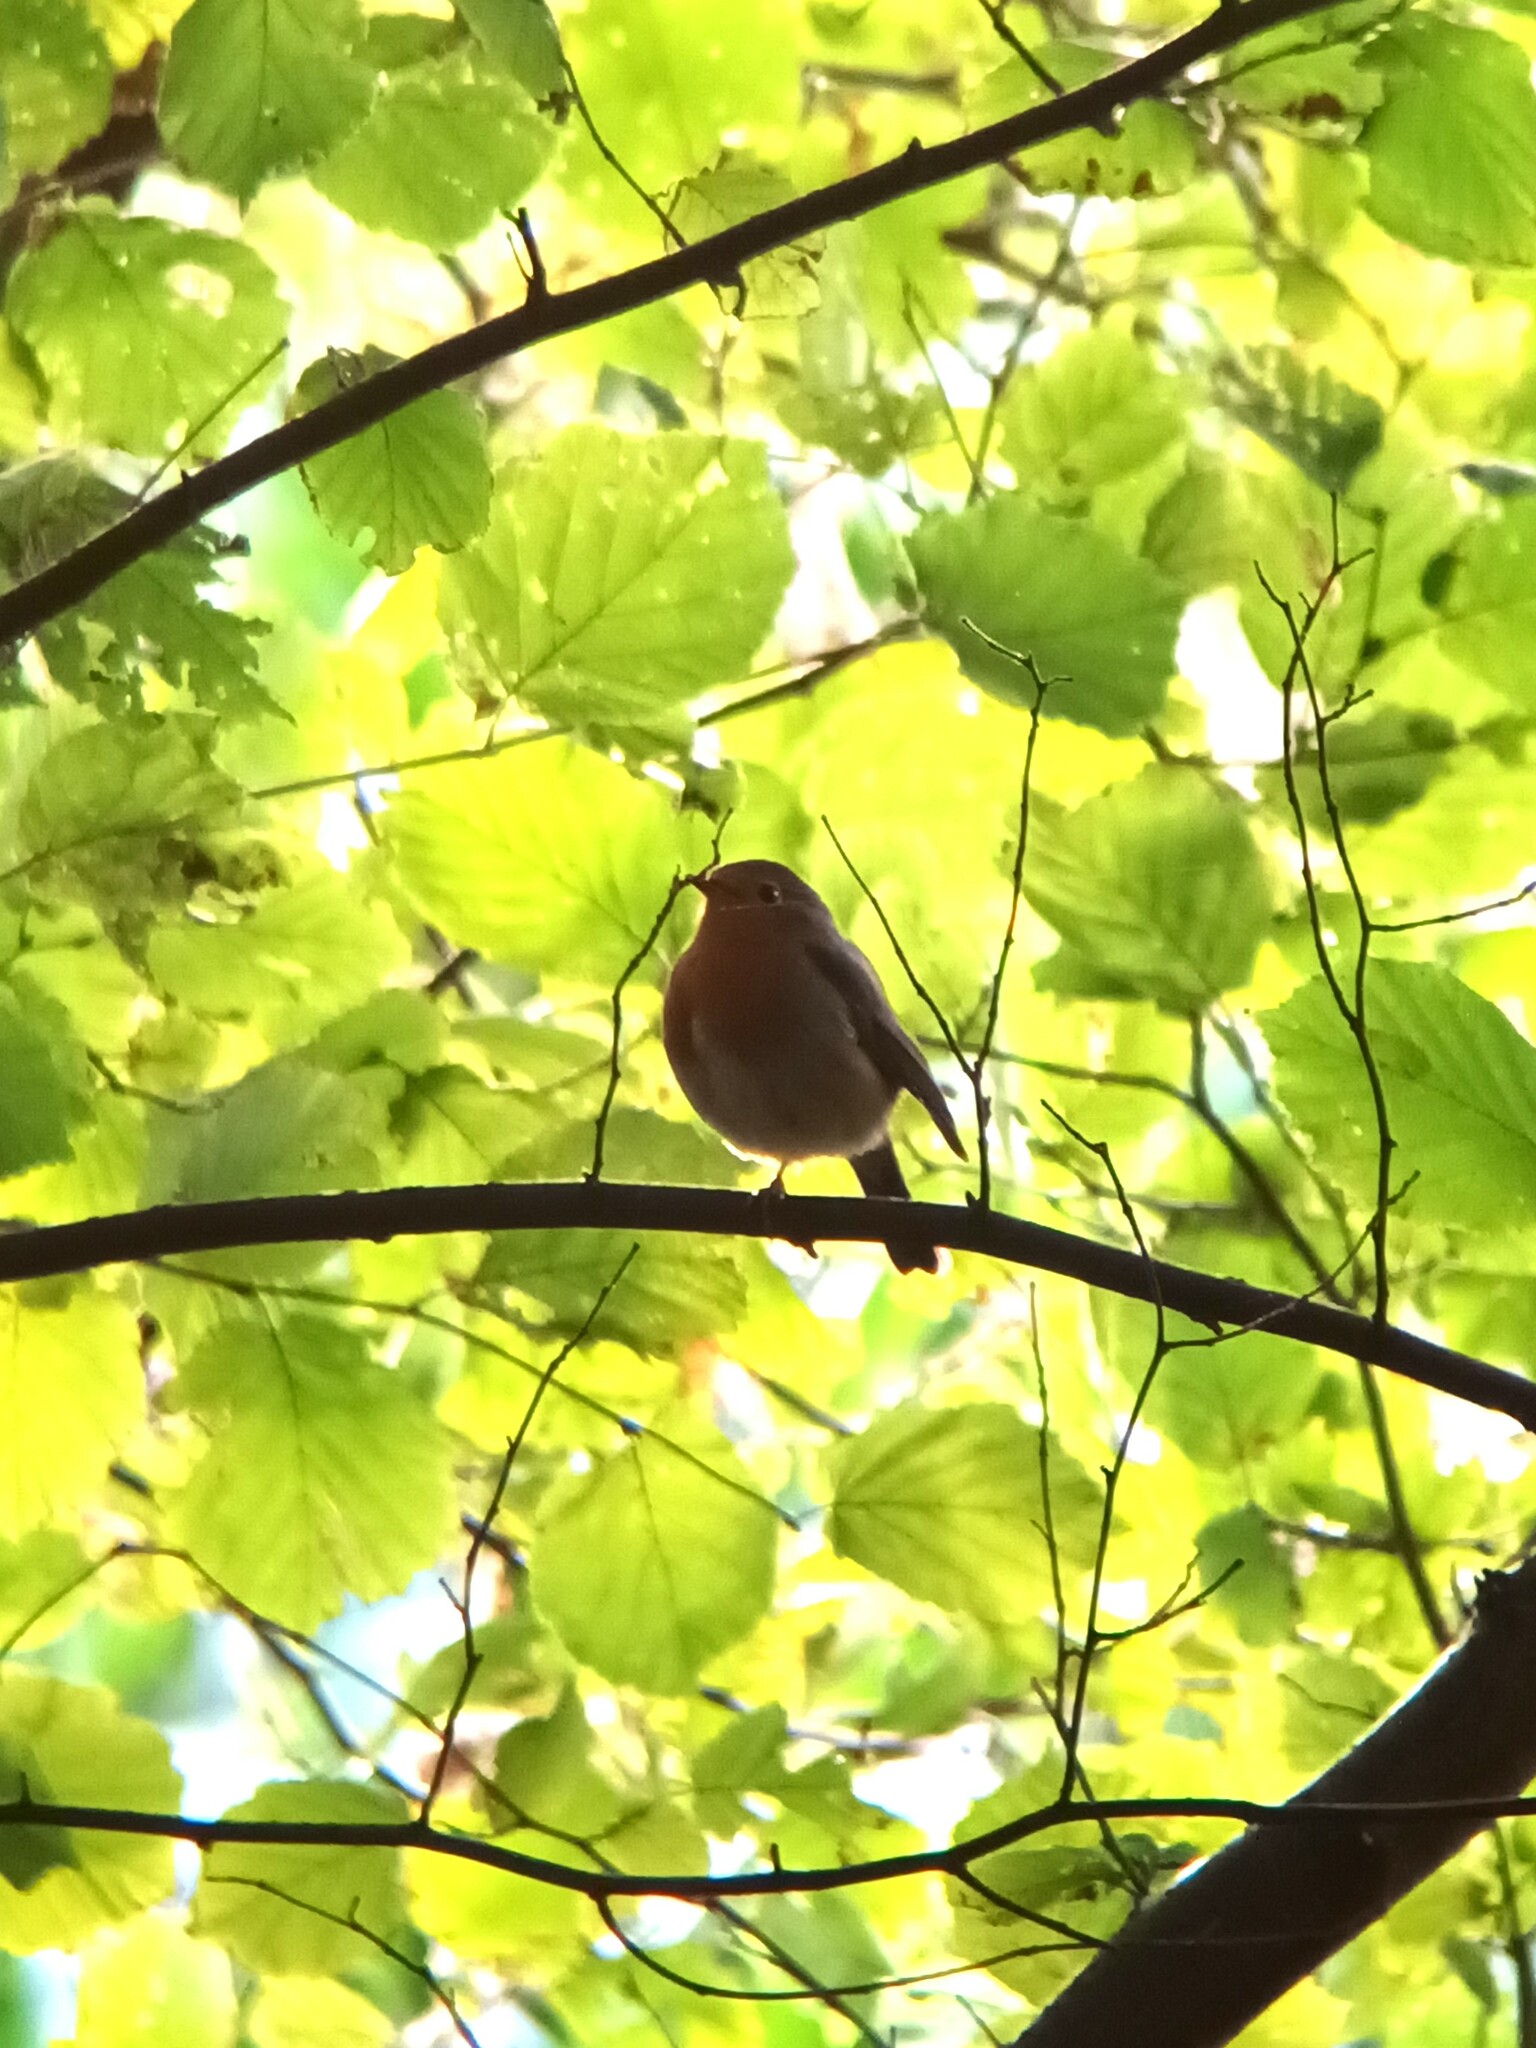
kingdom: Animalia
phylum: Chordata
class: Aves
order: Passeriformes
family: Muscicapidae
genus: Erithacus
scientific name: Erithacus rubecula
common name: European robin
